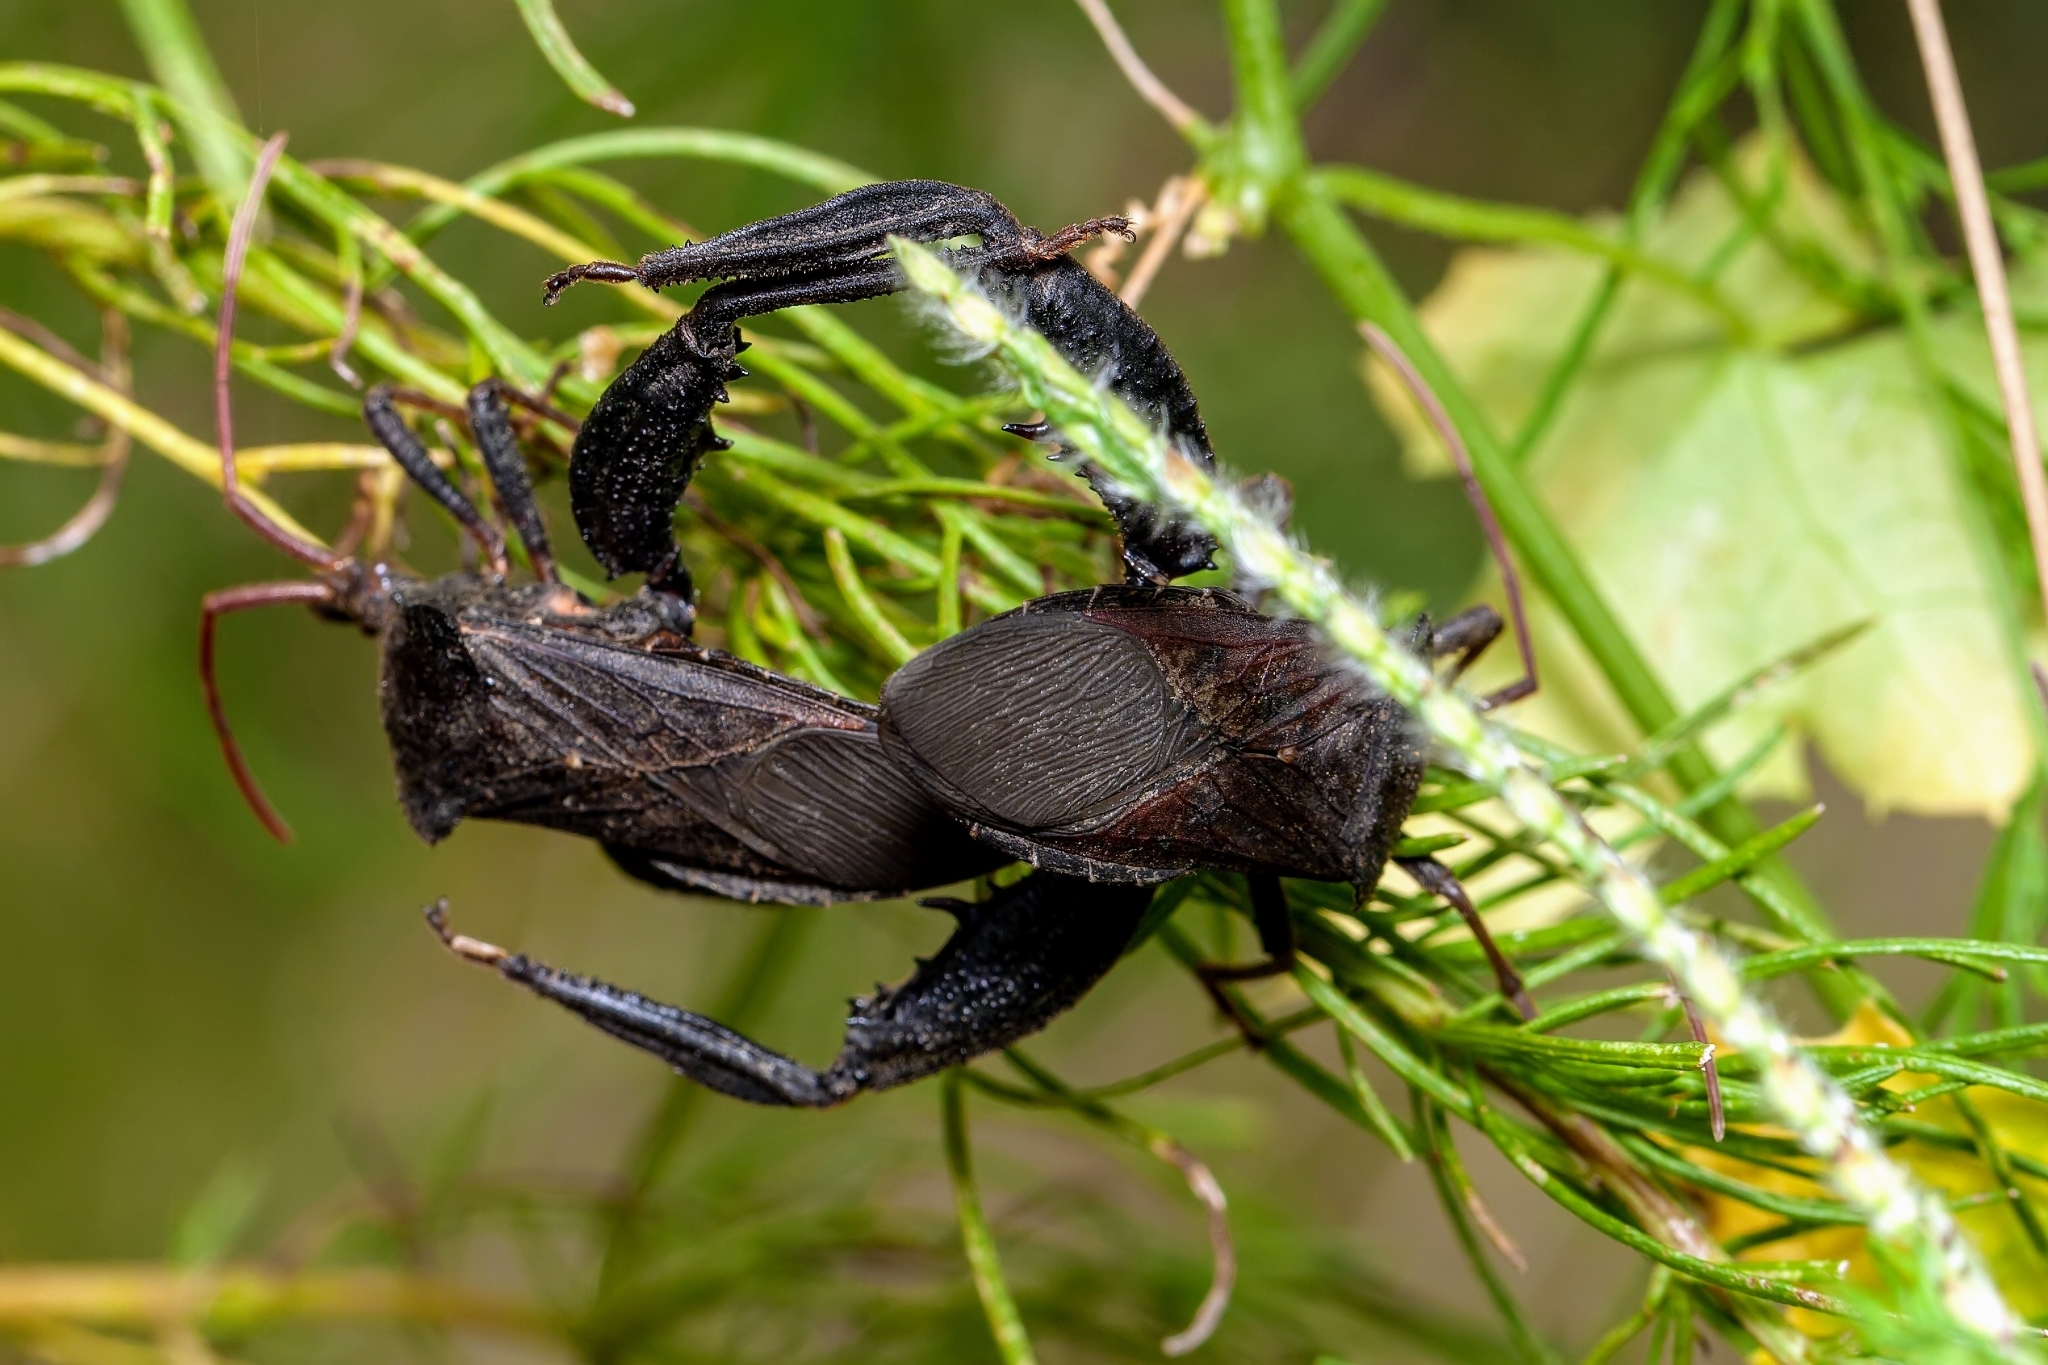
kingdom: Animalia
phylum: Arthropoda
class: Insecta
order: Hemiptera
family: Coreidae
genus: Acanthocephala
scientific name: Acanthocephala femorata
